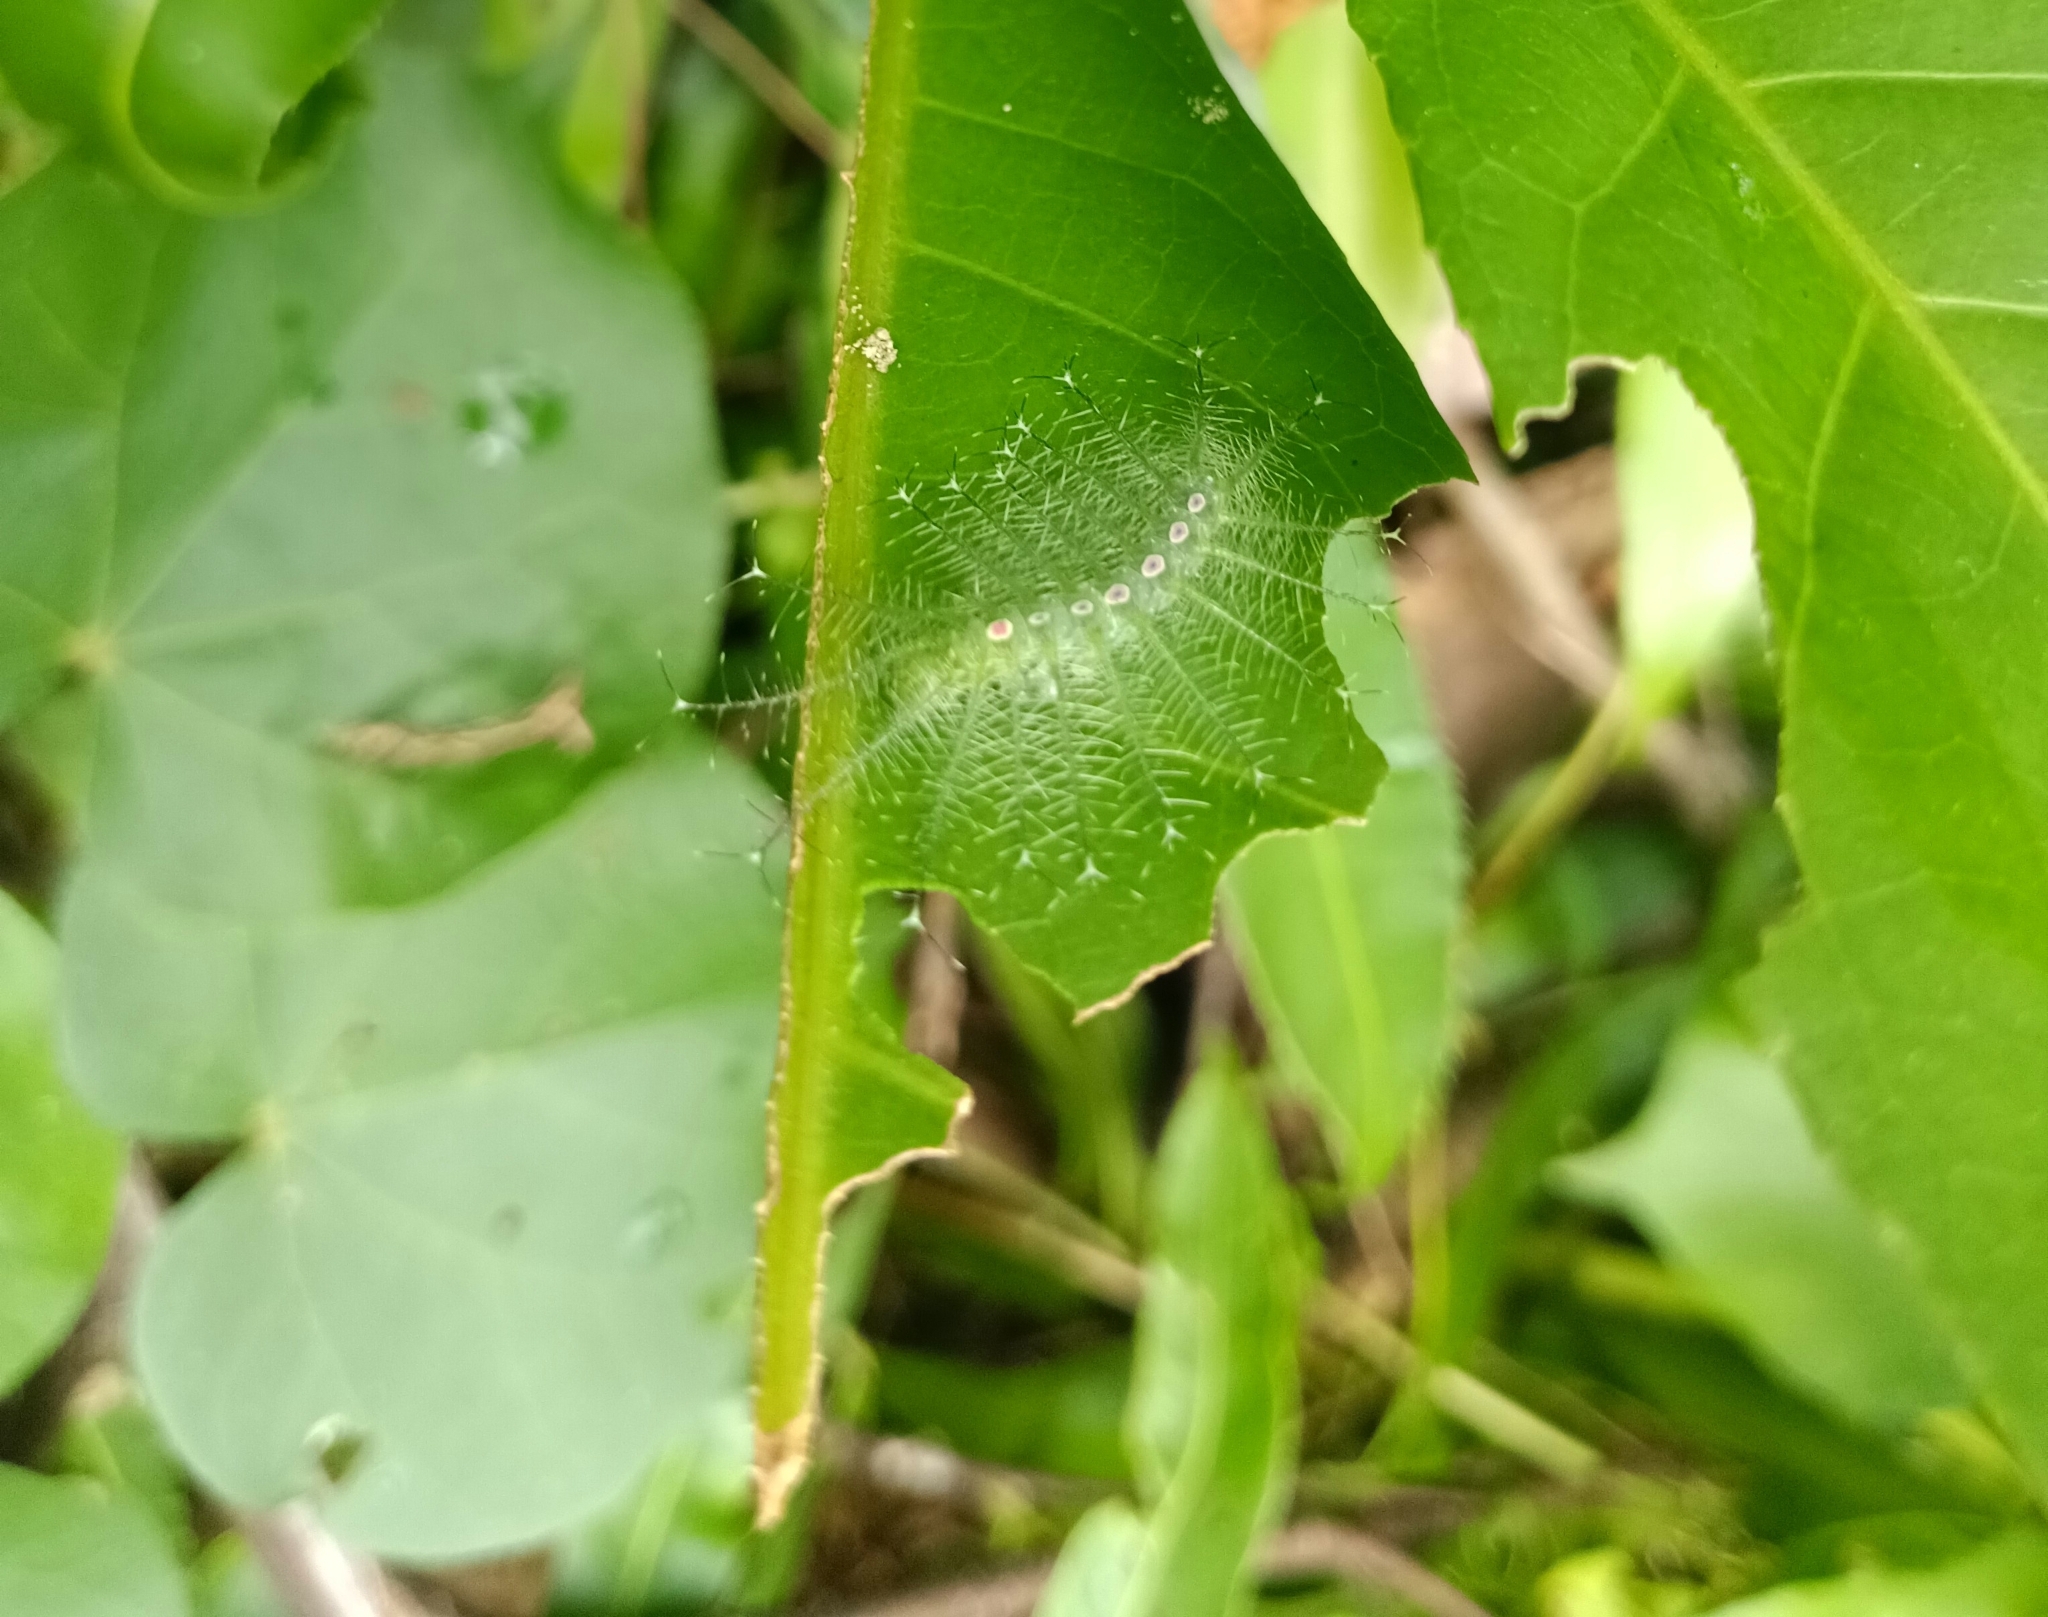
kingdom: Animalia
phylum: Arthropoda
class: Insecta
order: Lepidoptera
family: Nymphalidae
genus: Tanaecia
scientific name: Tanaecia lepidea
